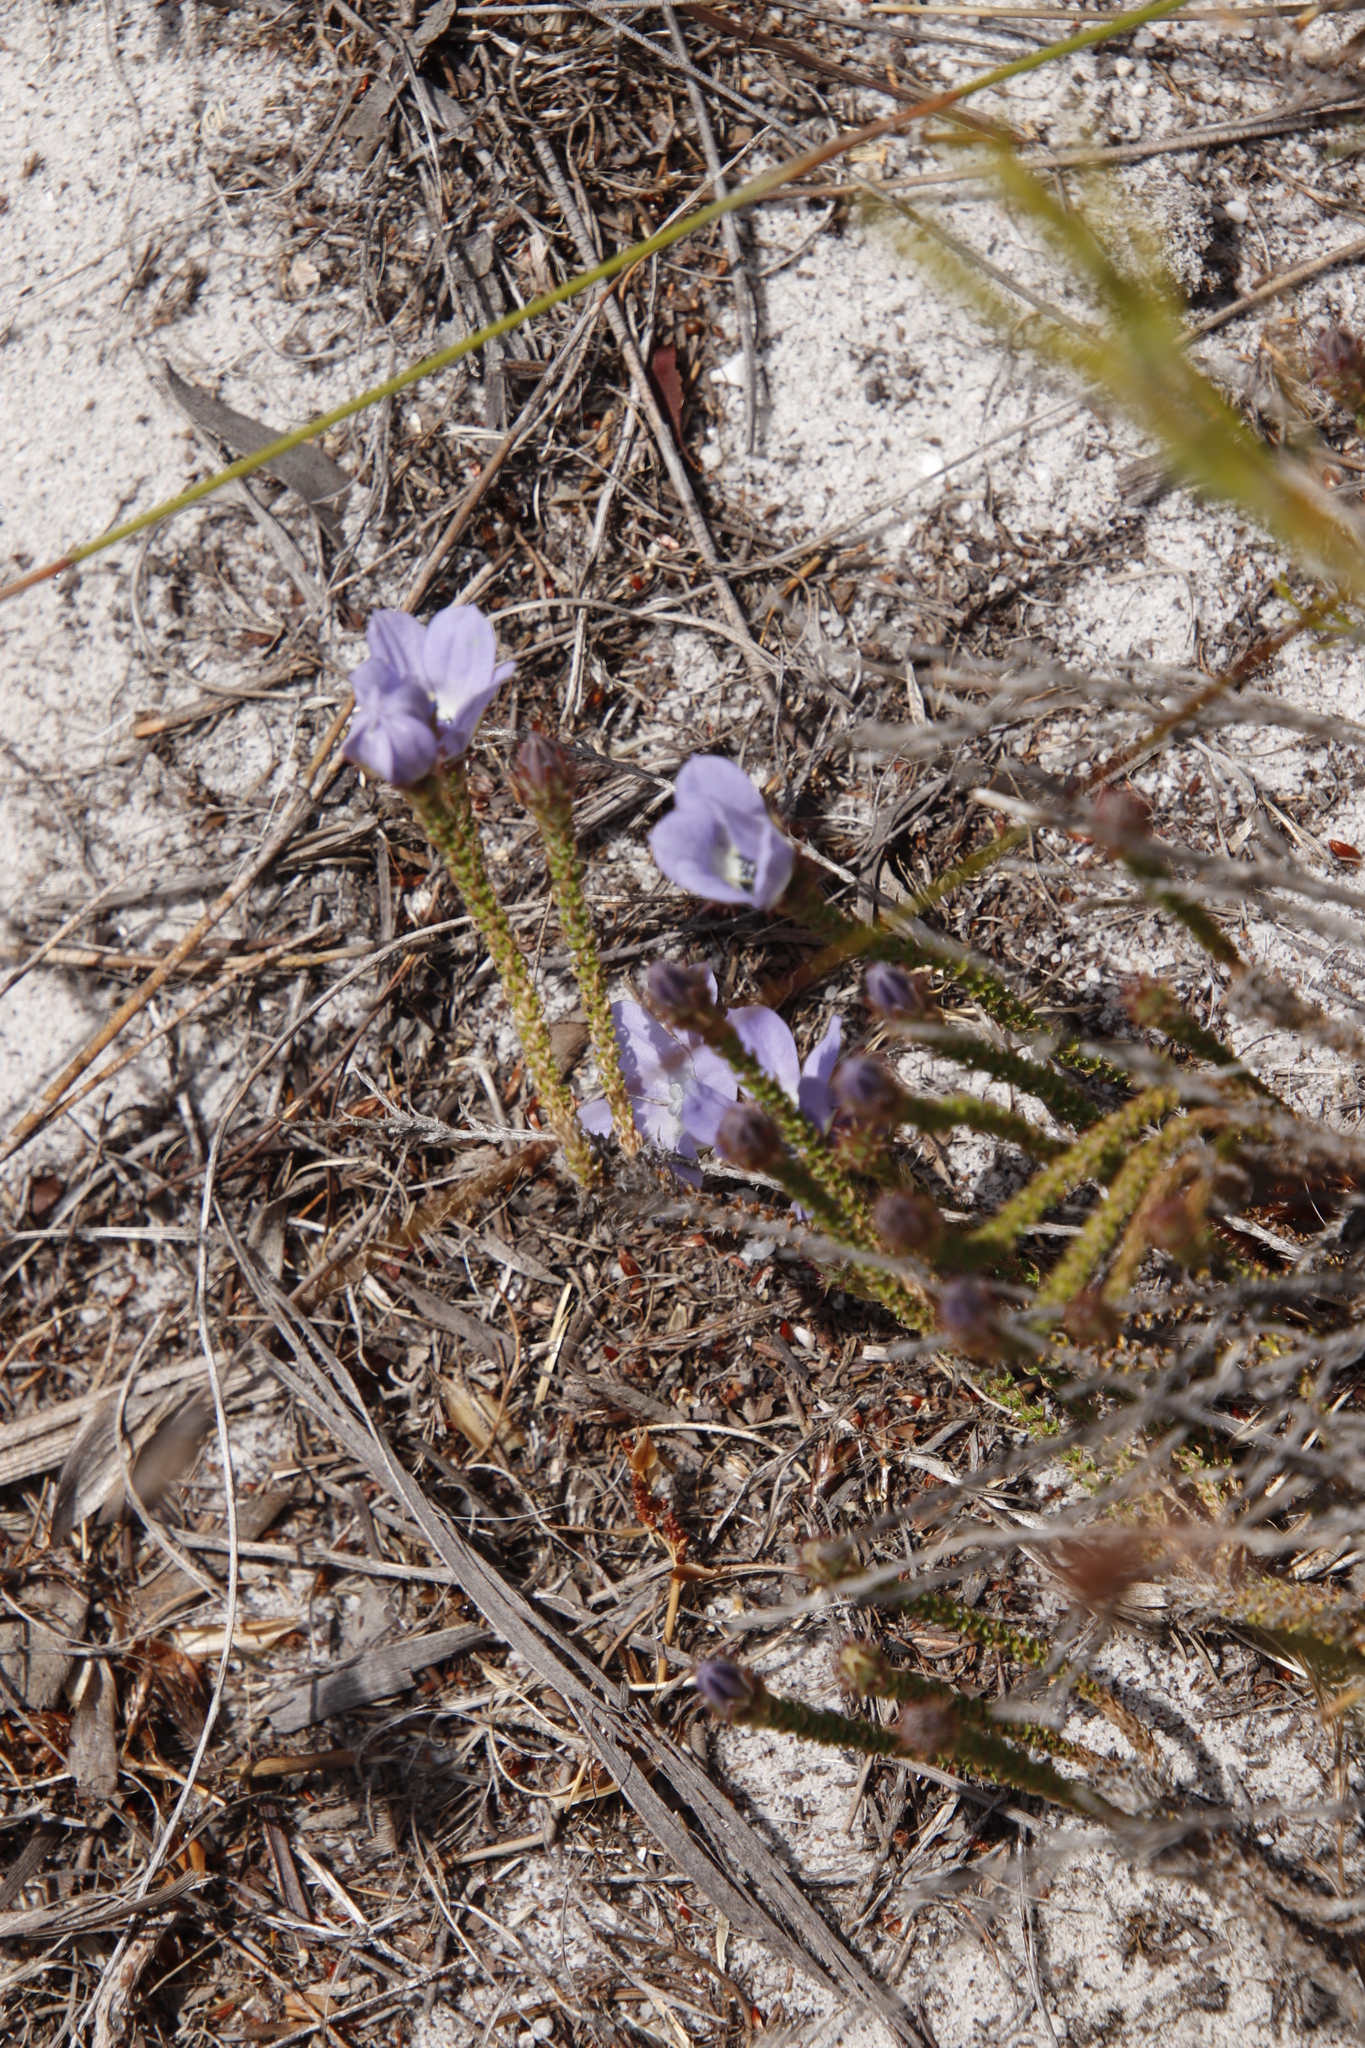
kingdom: Plantae
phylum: Tracheophyta
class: Magnoliopsida
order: Asterales
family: Campanulaceae
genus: Roella
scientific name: Roella triflora
